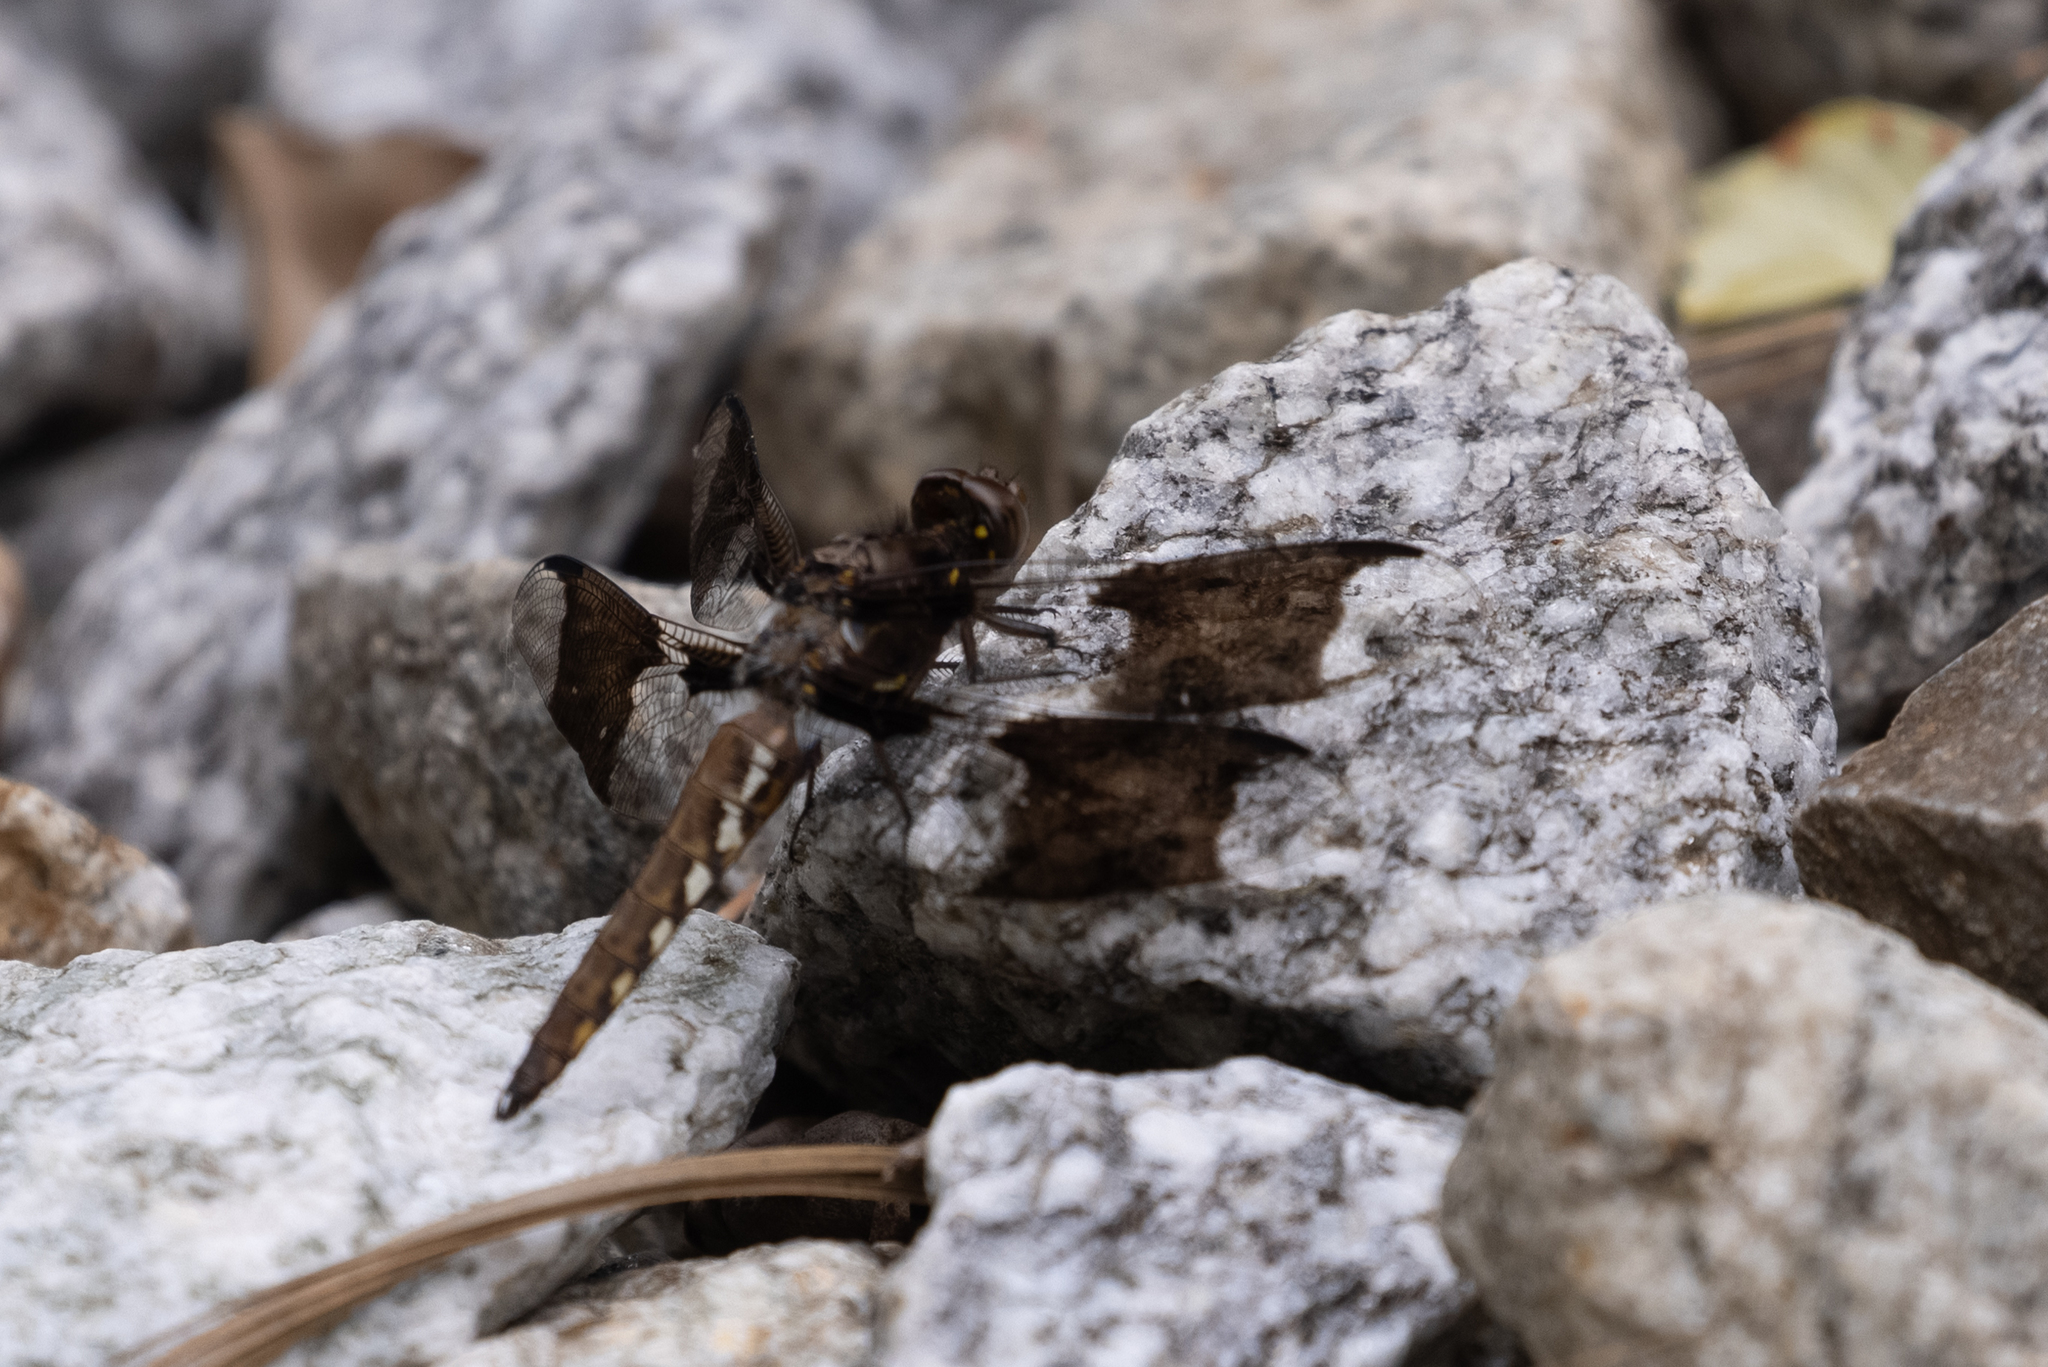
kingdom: Animalia
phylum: Arthropoda
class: Insecta
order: Odonata
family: Libellulidae
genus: Plathemis
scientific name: Plathemis lydia
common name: Common whitetail
